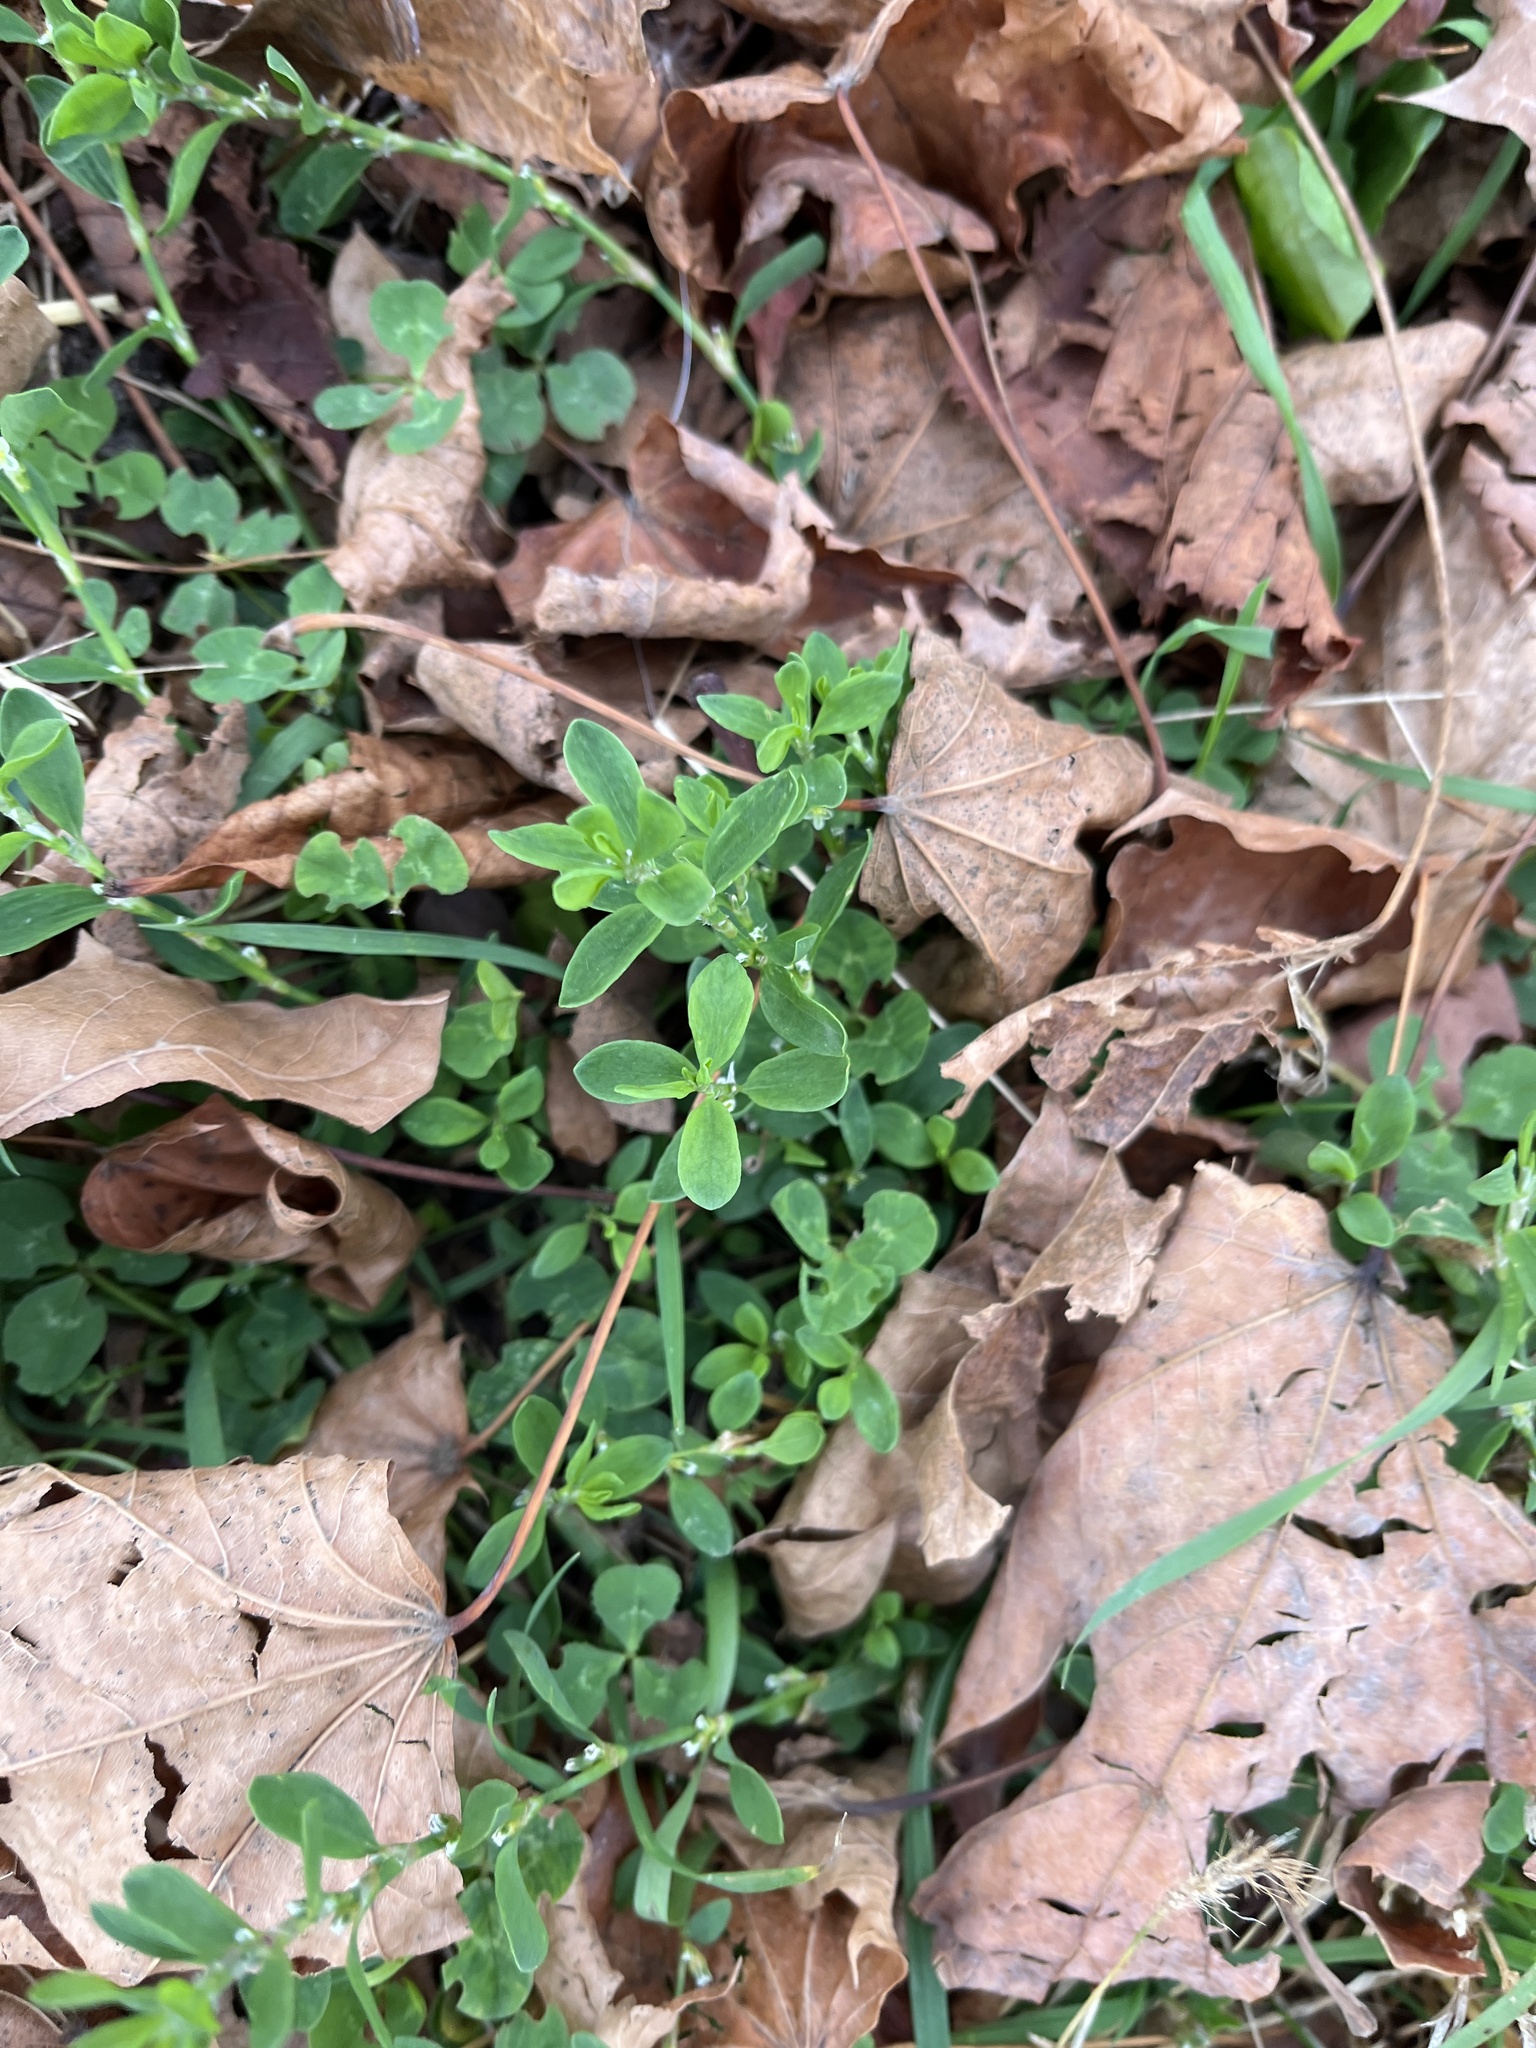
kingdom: Plantae
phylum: Tracheophyta
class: Magnoliopsida
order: Caryophyllales
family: Polygonaceae
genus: Polygonum
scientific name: Polygonum aviculare
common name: Prostrate knotweed
